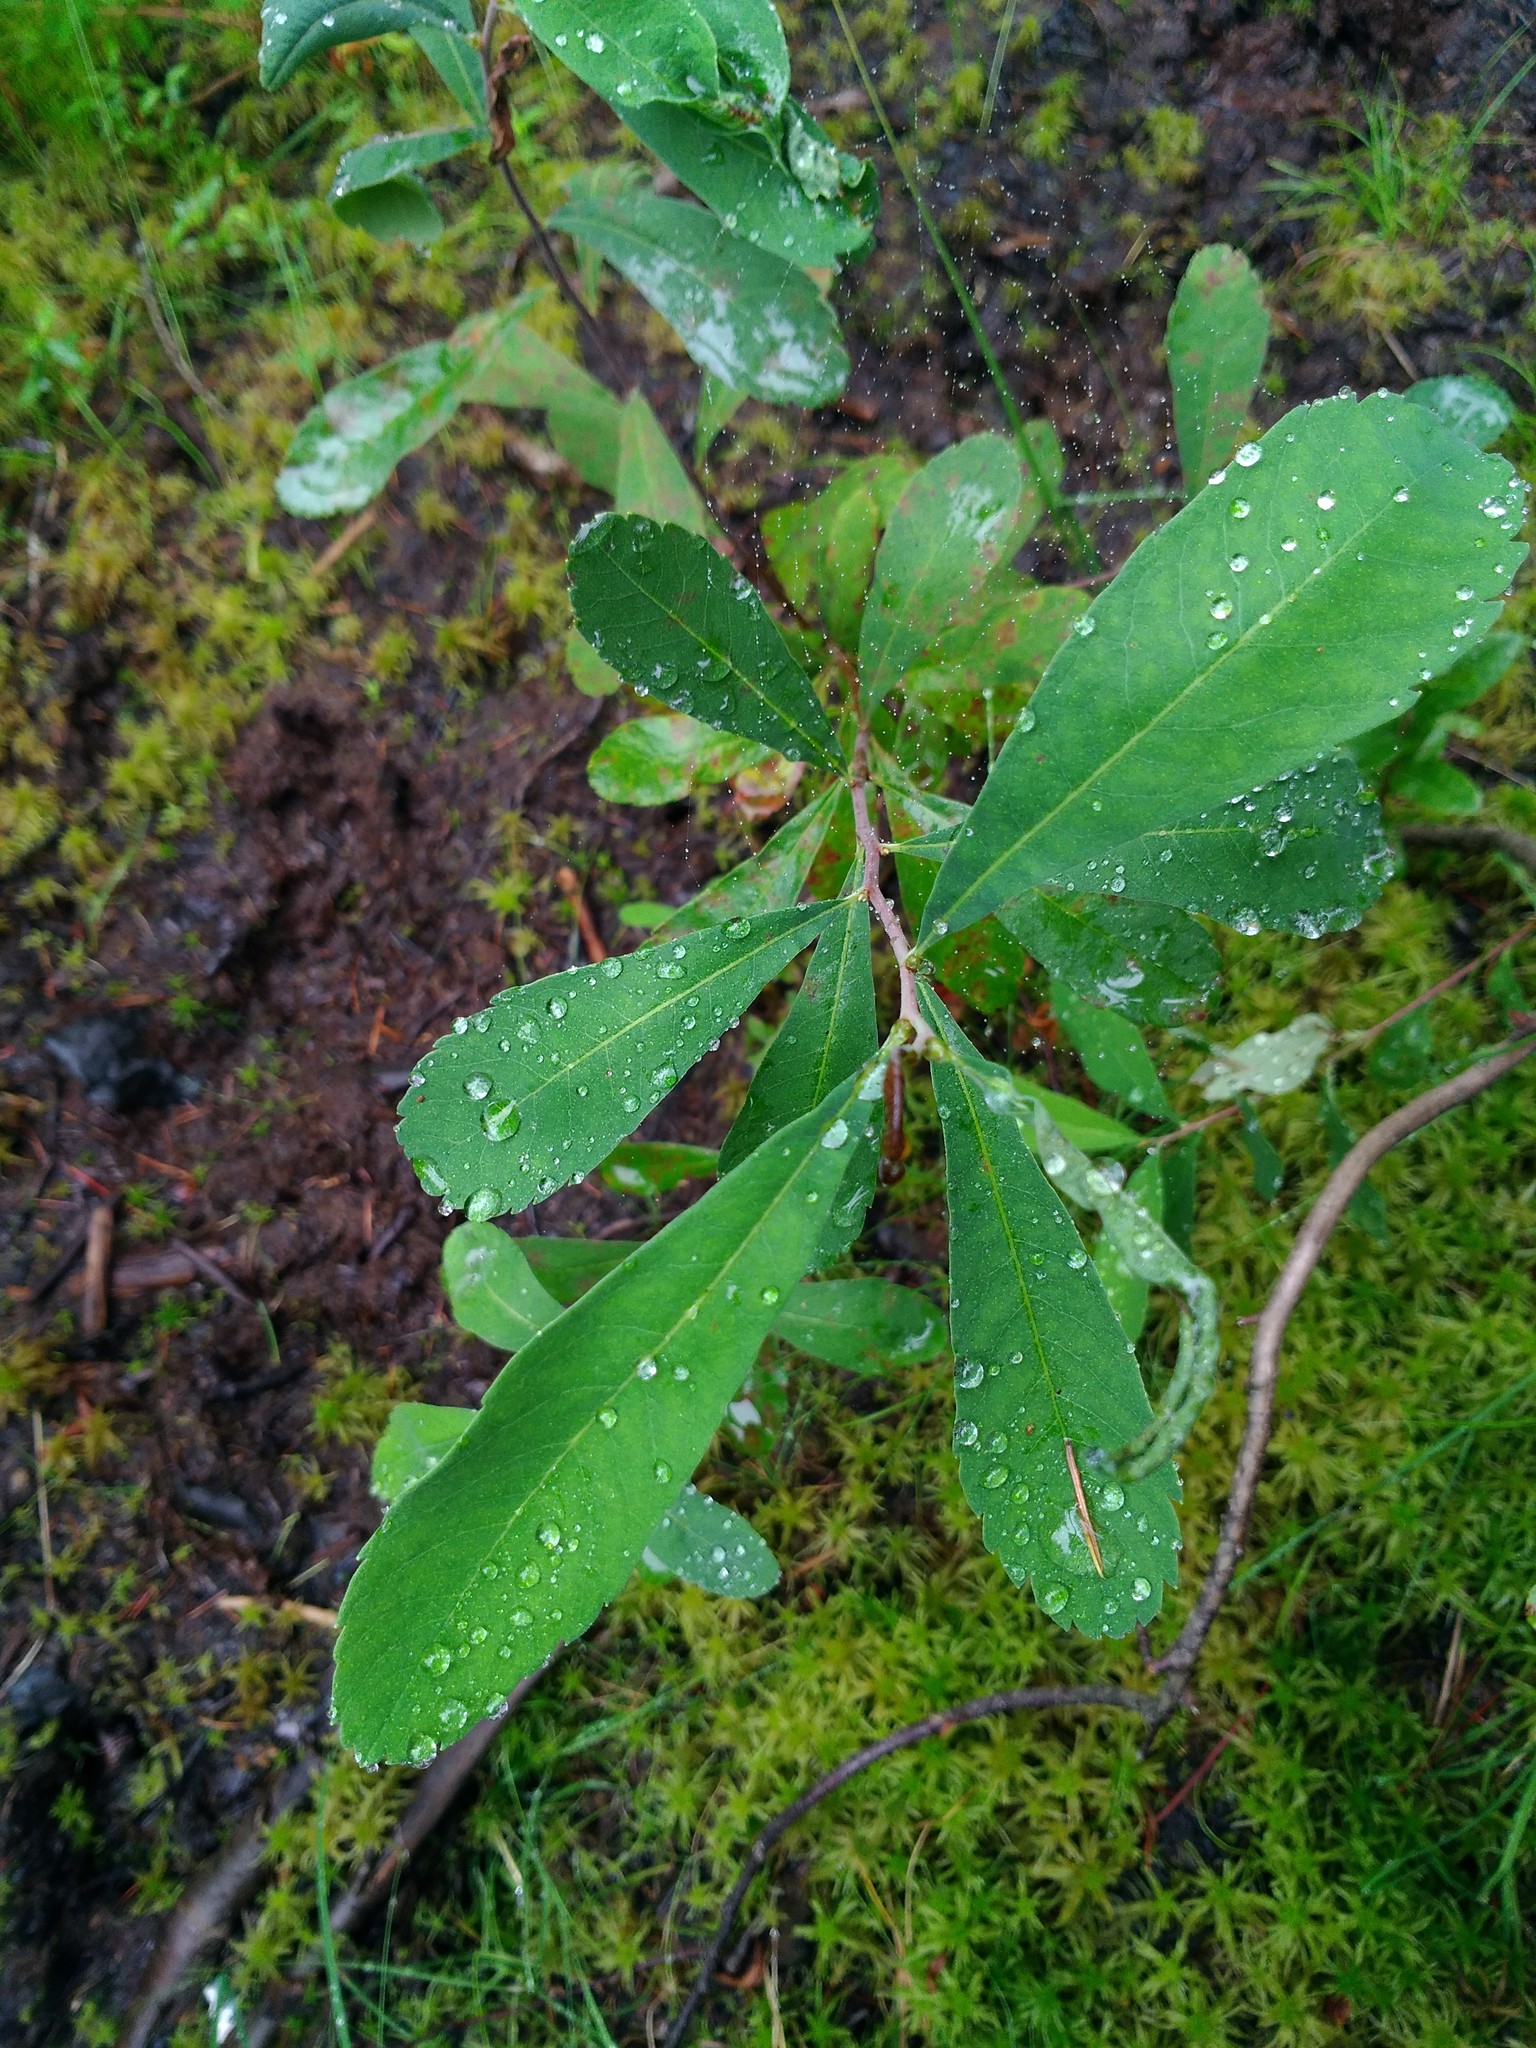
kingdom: Plantae
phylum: Tracheophyta
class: Magnoliopsida
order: Fagales
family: Myricaceae
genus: Myrica
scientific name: Myrica gale
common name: Sweet gale
